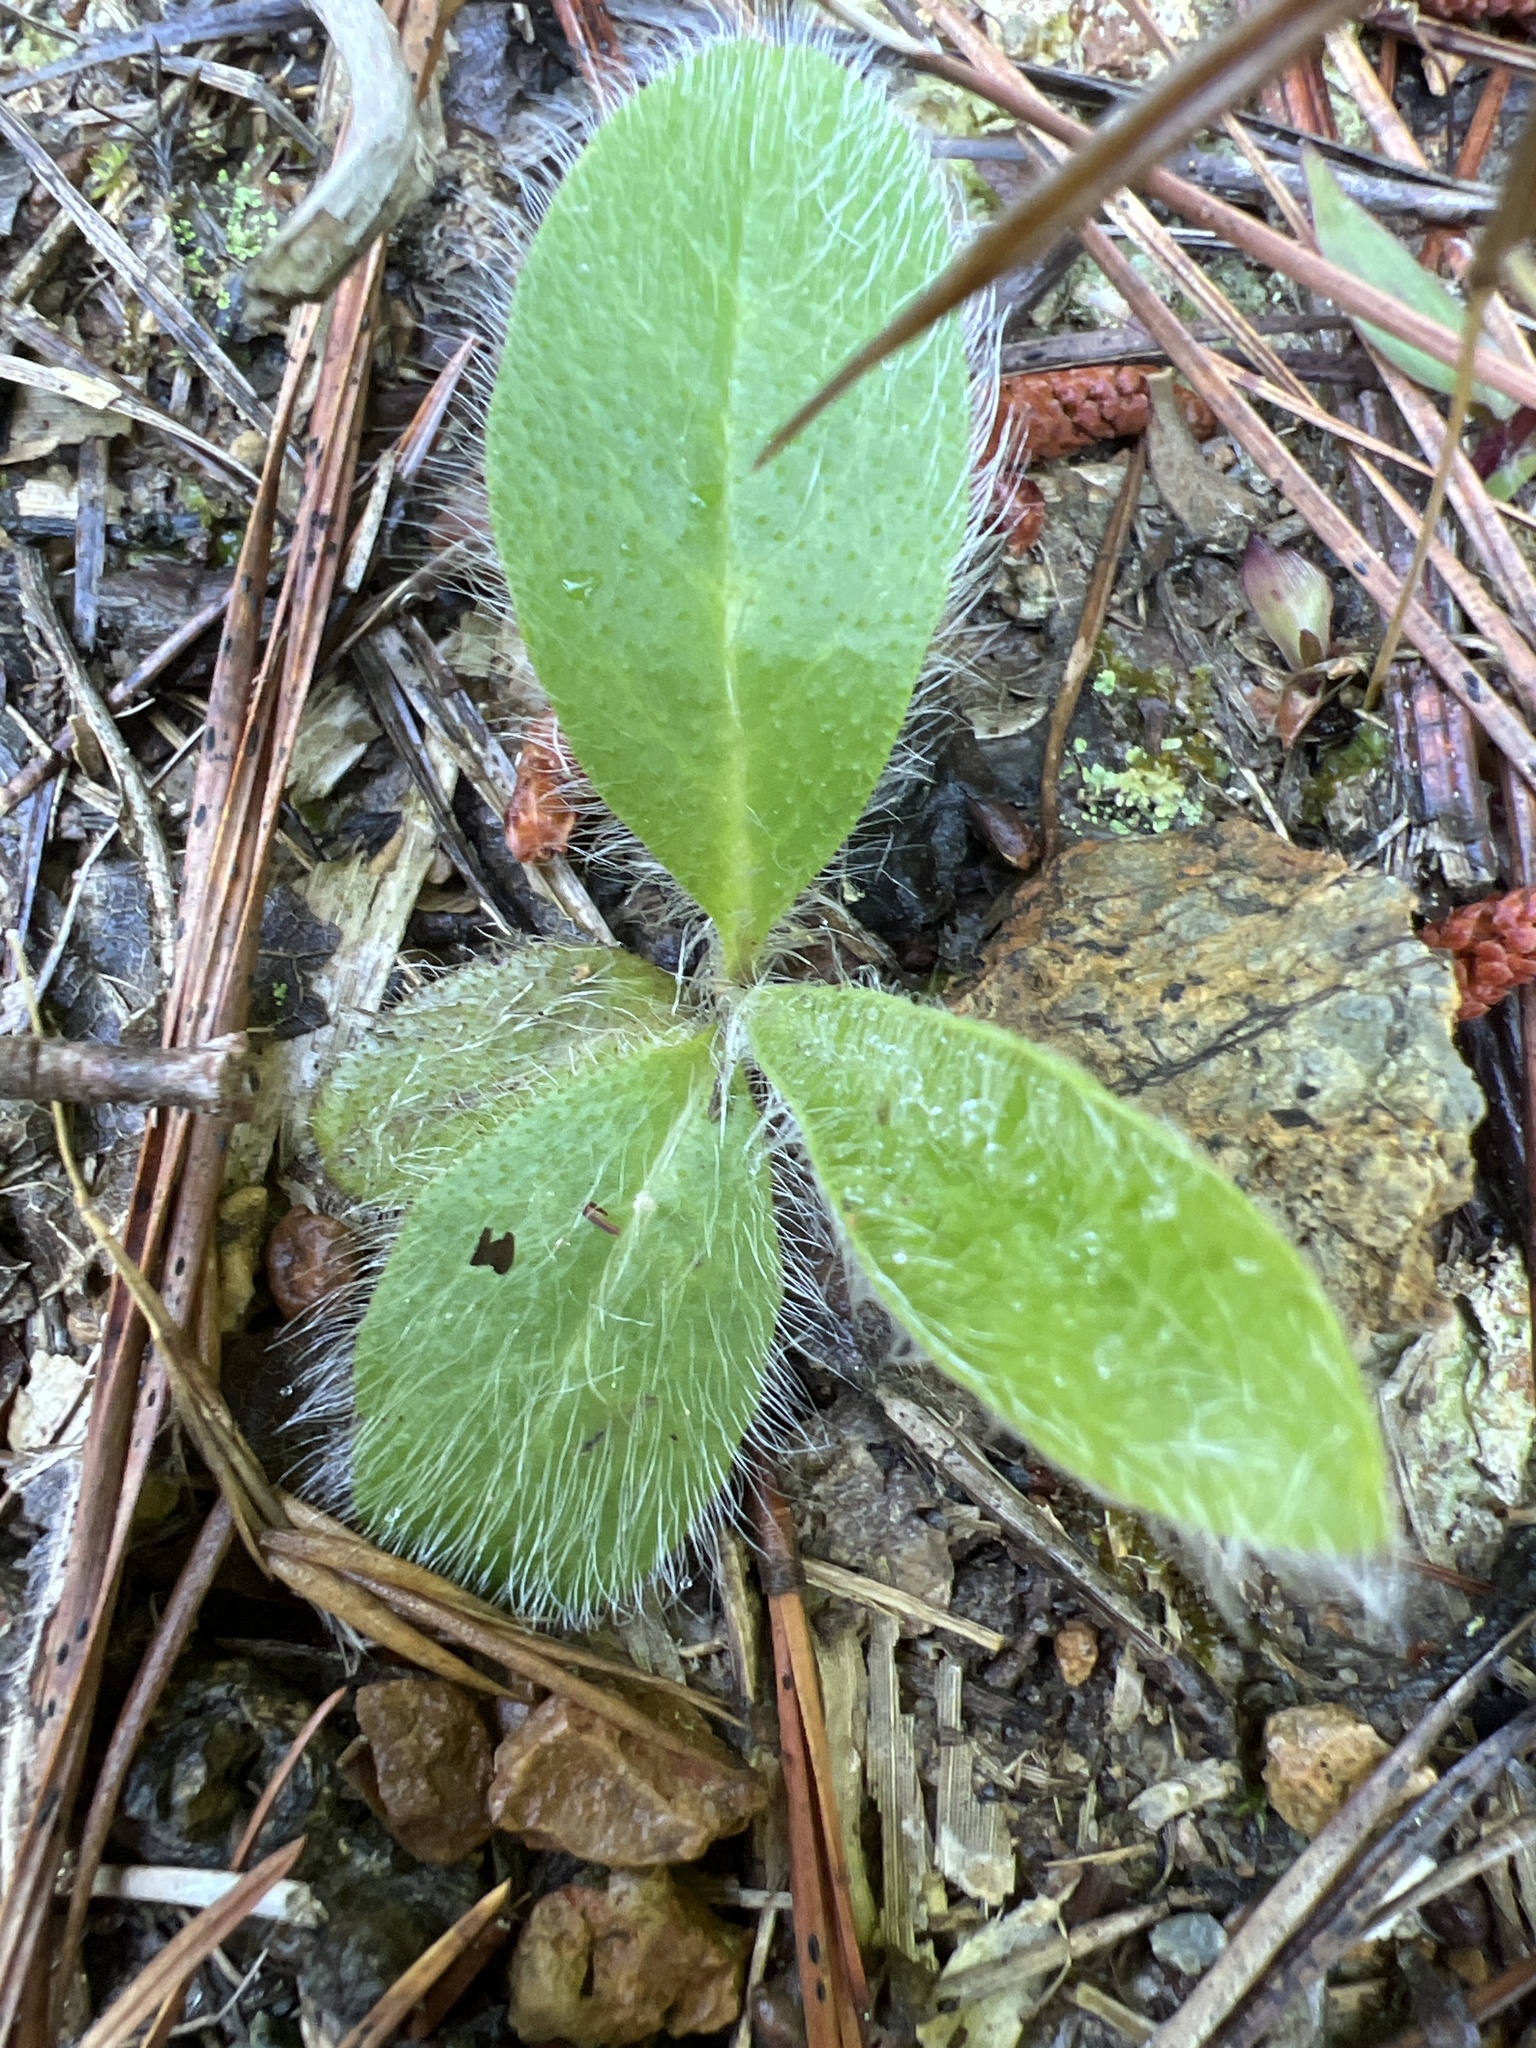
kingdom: Plantae
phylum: Tracheophyta
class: Magnoliopsida
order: Asterales
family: Asteraceae
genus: Hieracium
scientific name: Hieracium gronovii
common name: Beaked hawkweed
